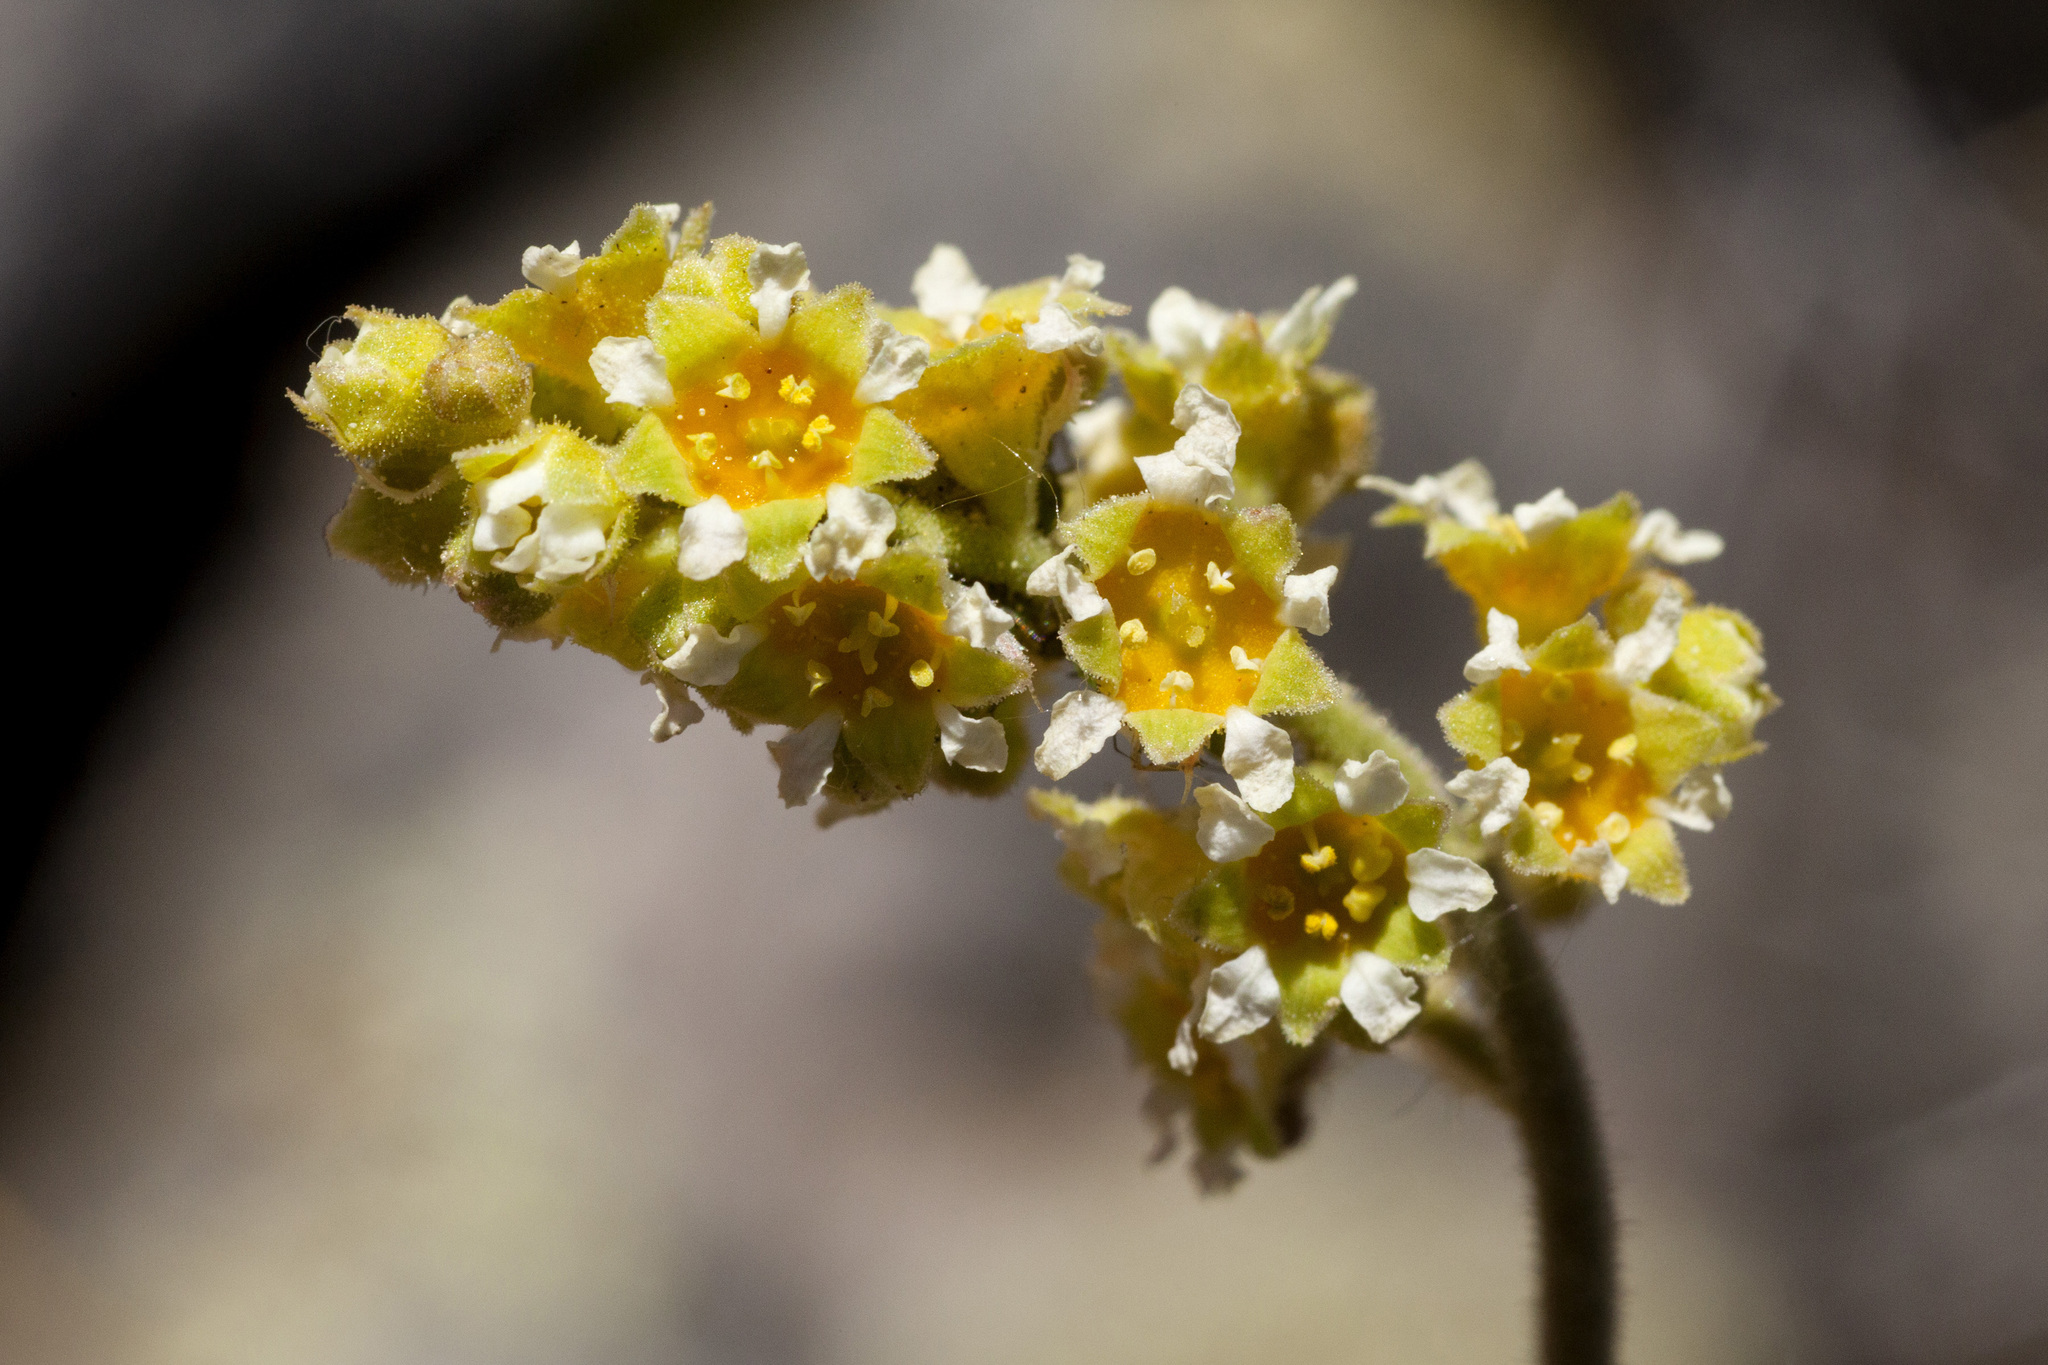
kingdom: Plantae
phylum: Tracheophyta
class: Magnoliopsida
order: Saxifragales
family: Saxifragaceae
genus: Heuchera
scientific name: Heuchera parvifolia
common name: Common alumroot
